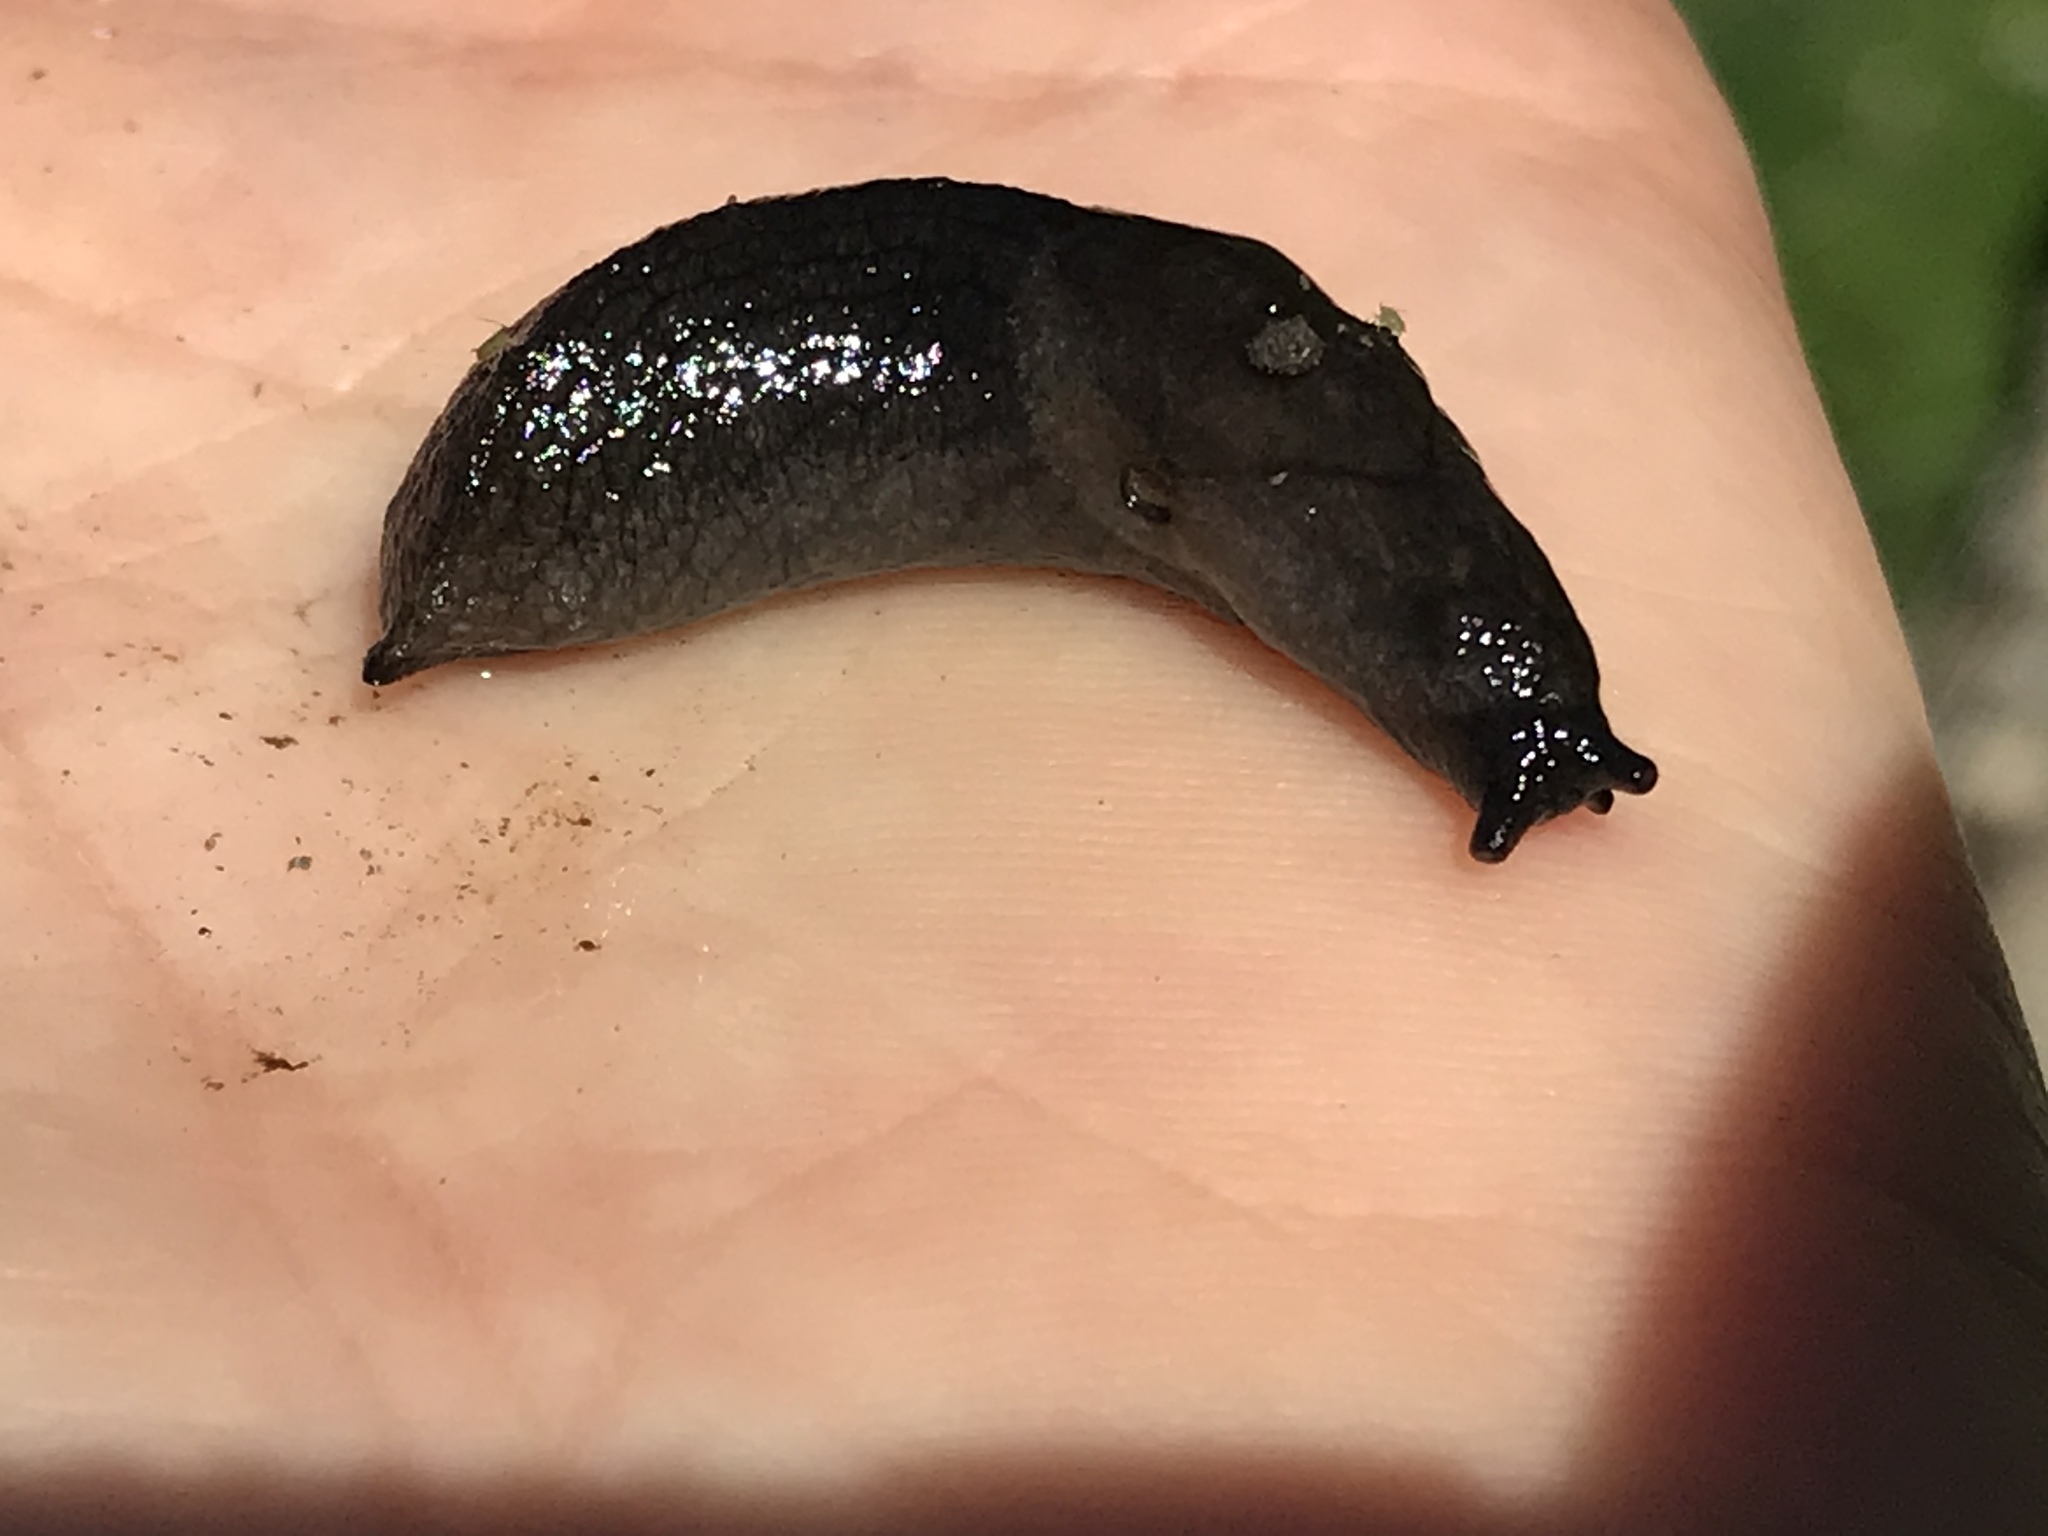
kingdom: Animalia
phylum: Mollusca
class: Gastropoda
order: Stylommatophora
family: Milacidae
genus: Milax
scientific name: Milax gagates
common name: Greenhouse slug
